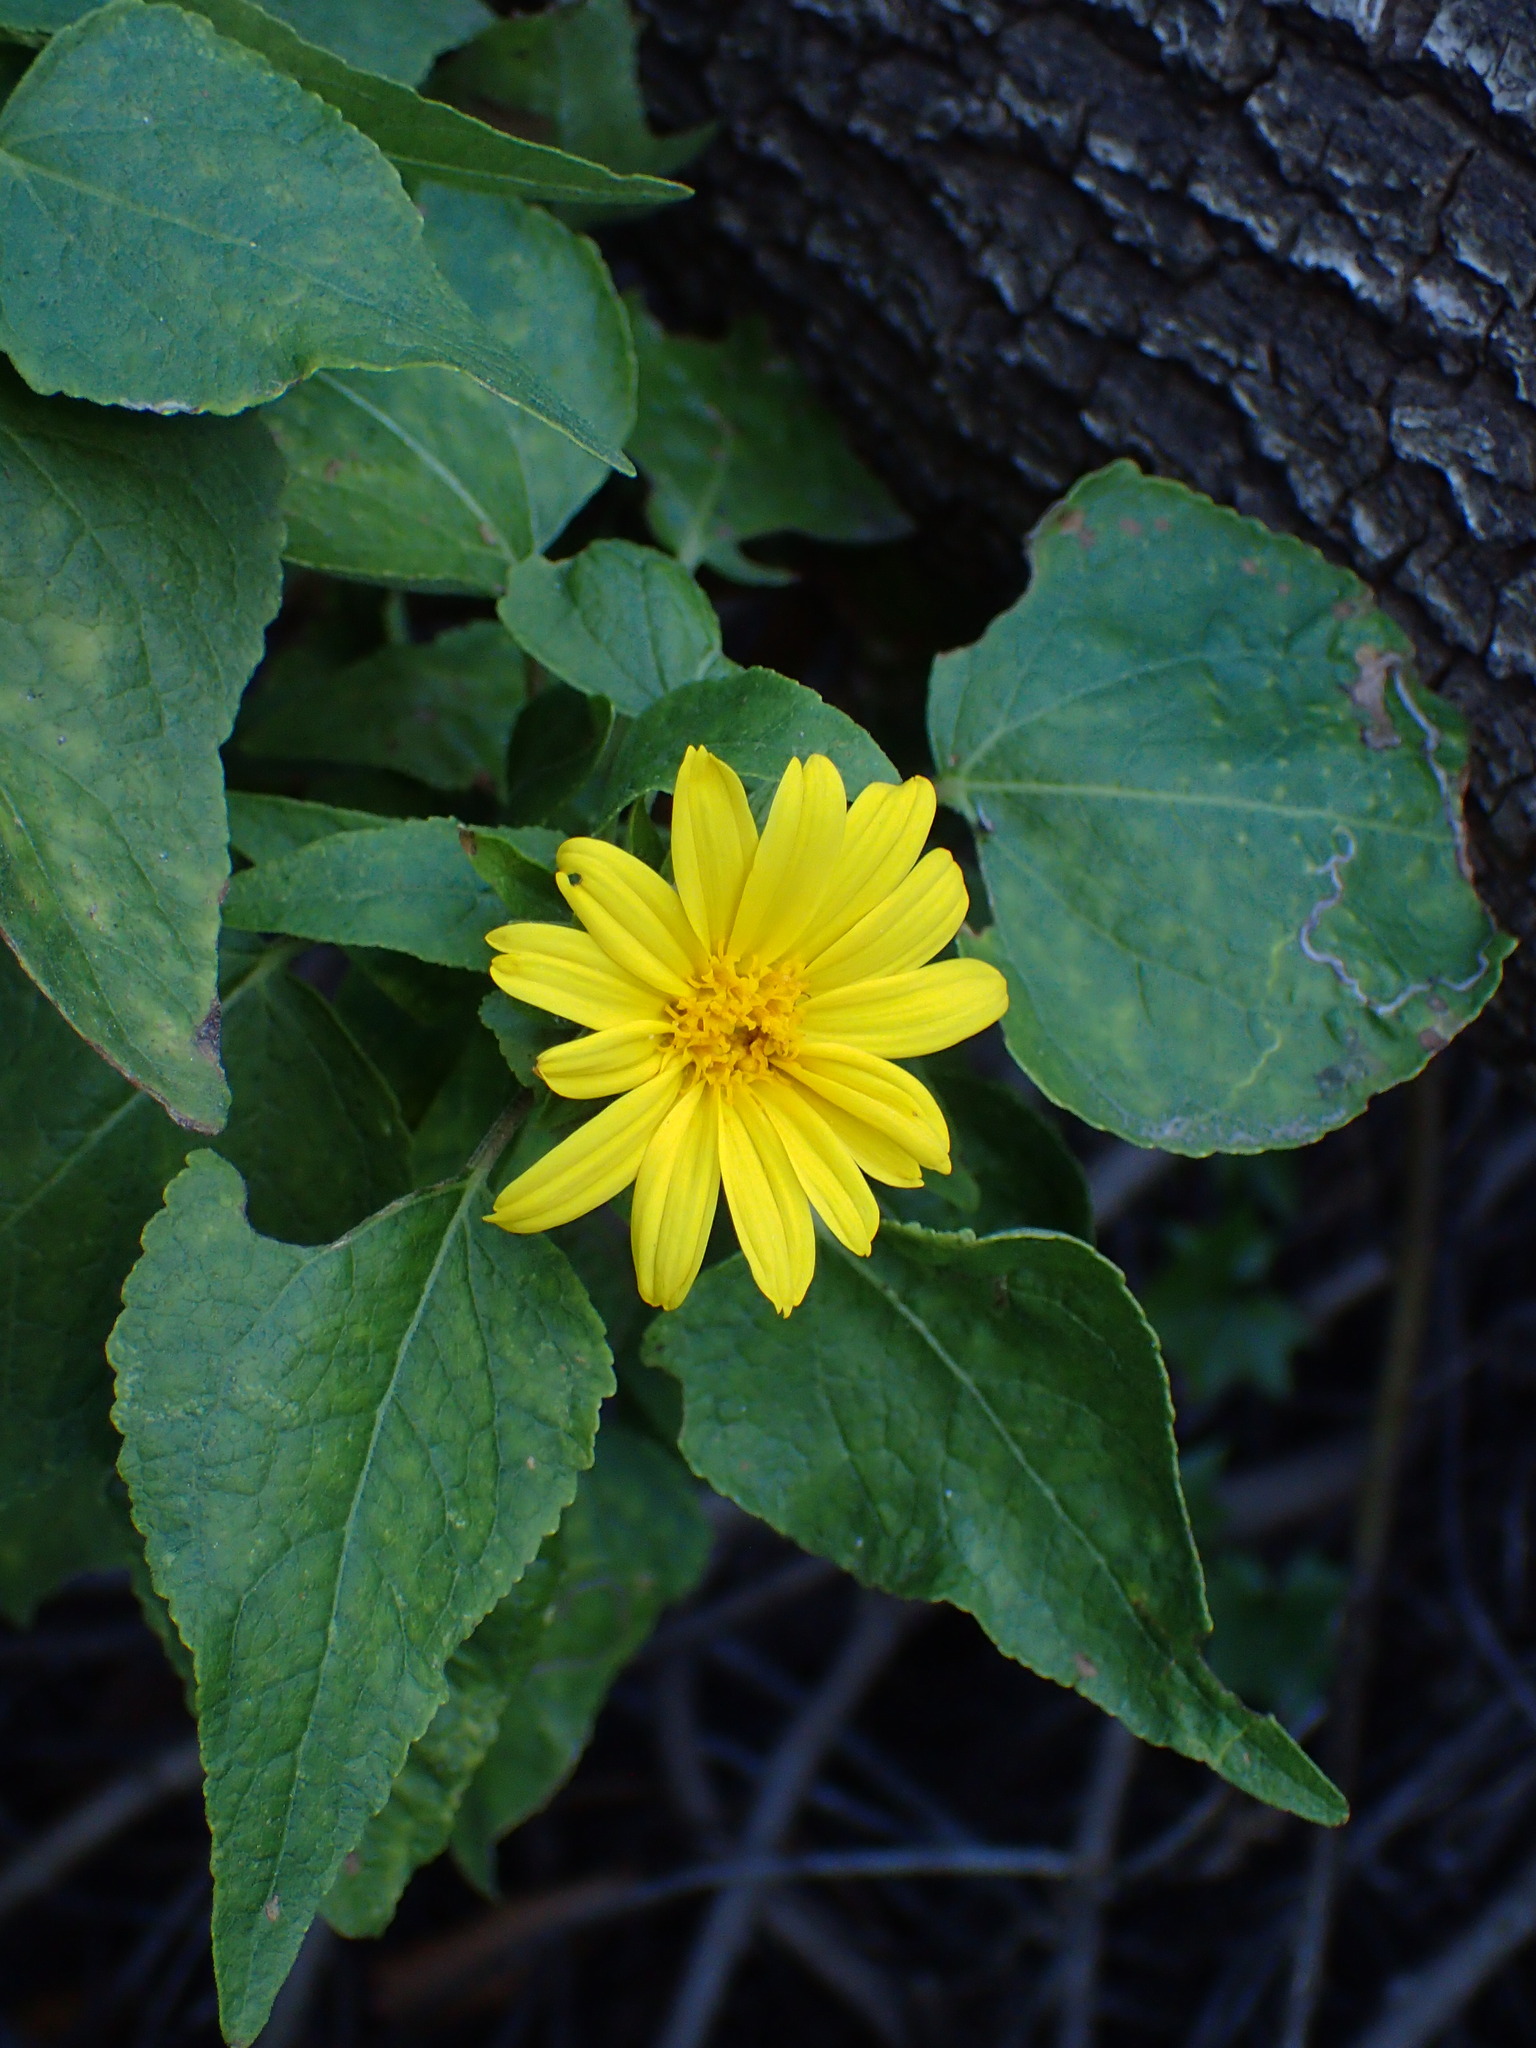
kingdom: Plantae
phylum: Tracheophyta
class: Magnoliopsida
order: Asterales
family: Asteraceae
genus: Venegasia
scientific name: Venegasia carpesioides
